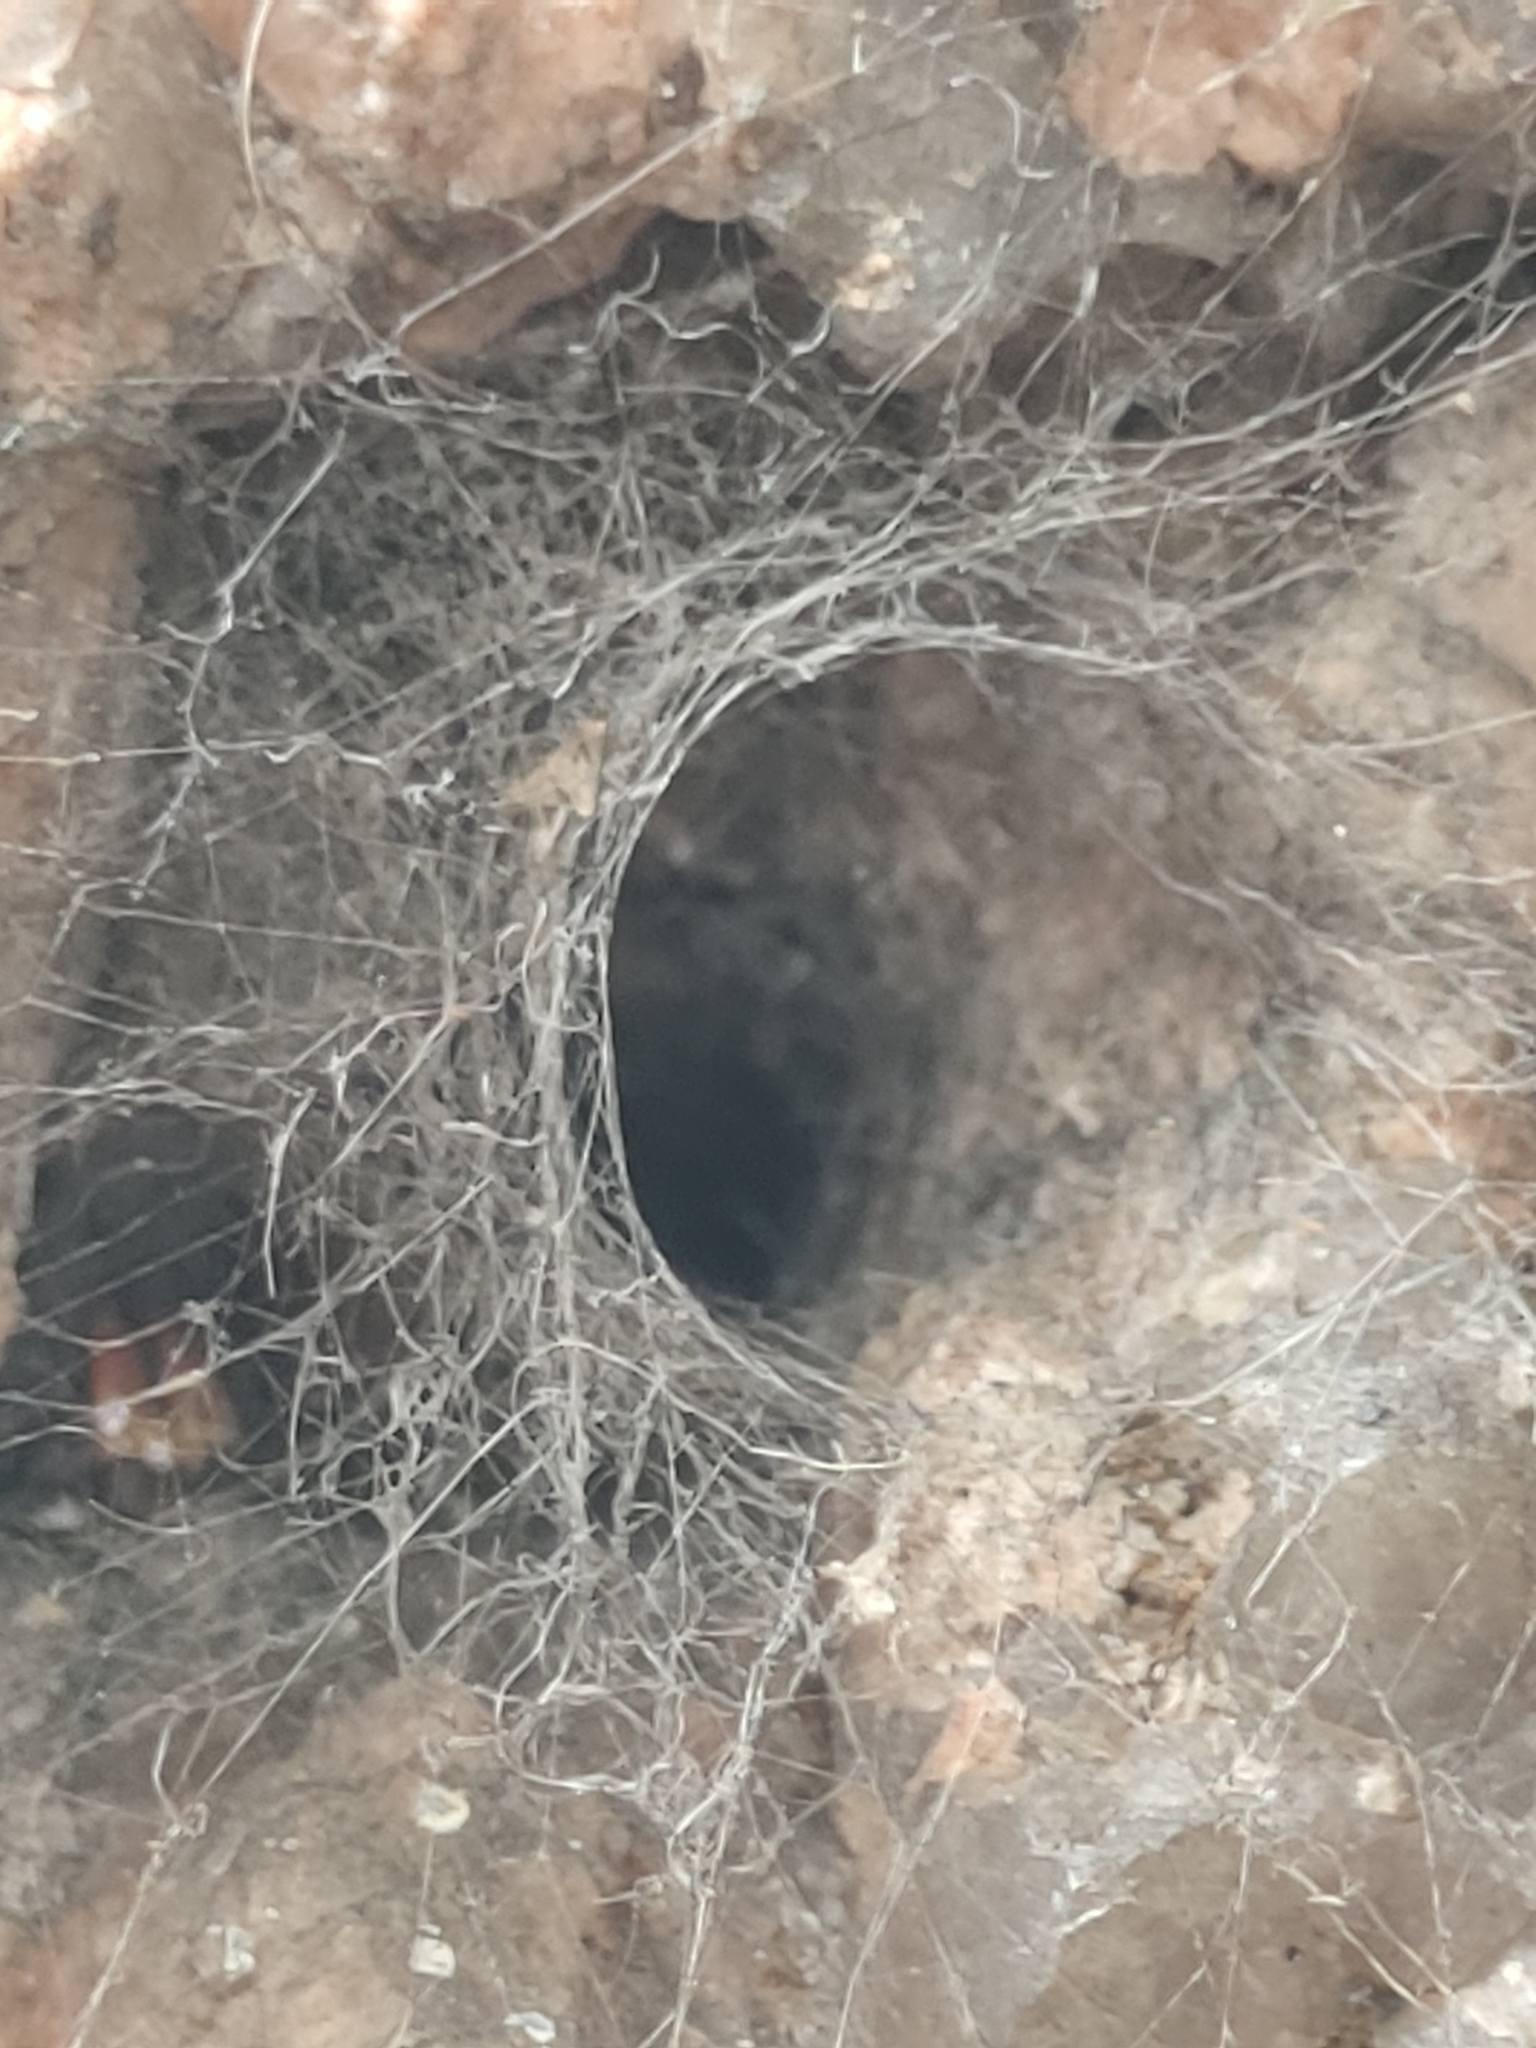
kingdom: Animalia
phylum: Arthropoda
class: Arachnida
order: Araneae
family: Araneidae
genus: Nephilingis
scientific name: Nephilingis cruentata
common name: African hermit spider
